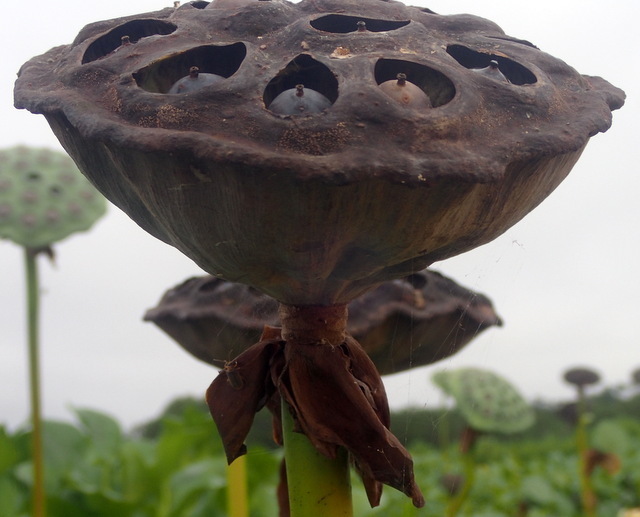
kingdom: Plantae
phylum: Tracheophyta
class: Magnoliopsida
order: Proteales
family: Nelumbonaceae
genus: Nelumbo
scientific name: Nelumbo lutea
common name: American lotus
